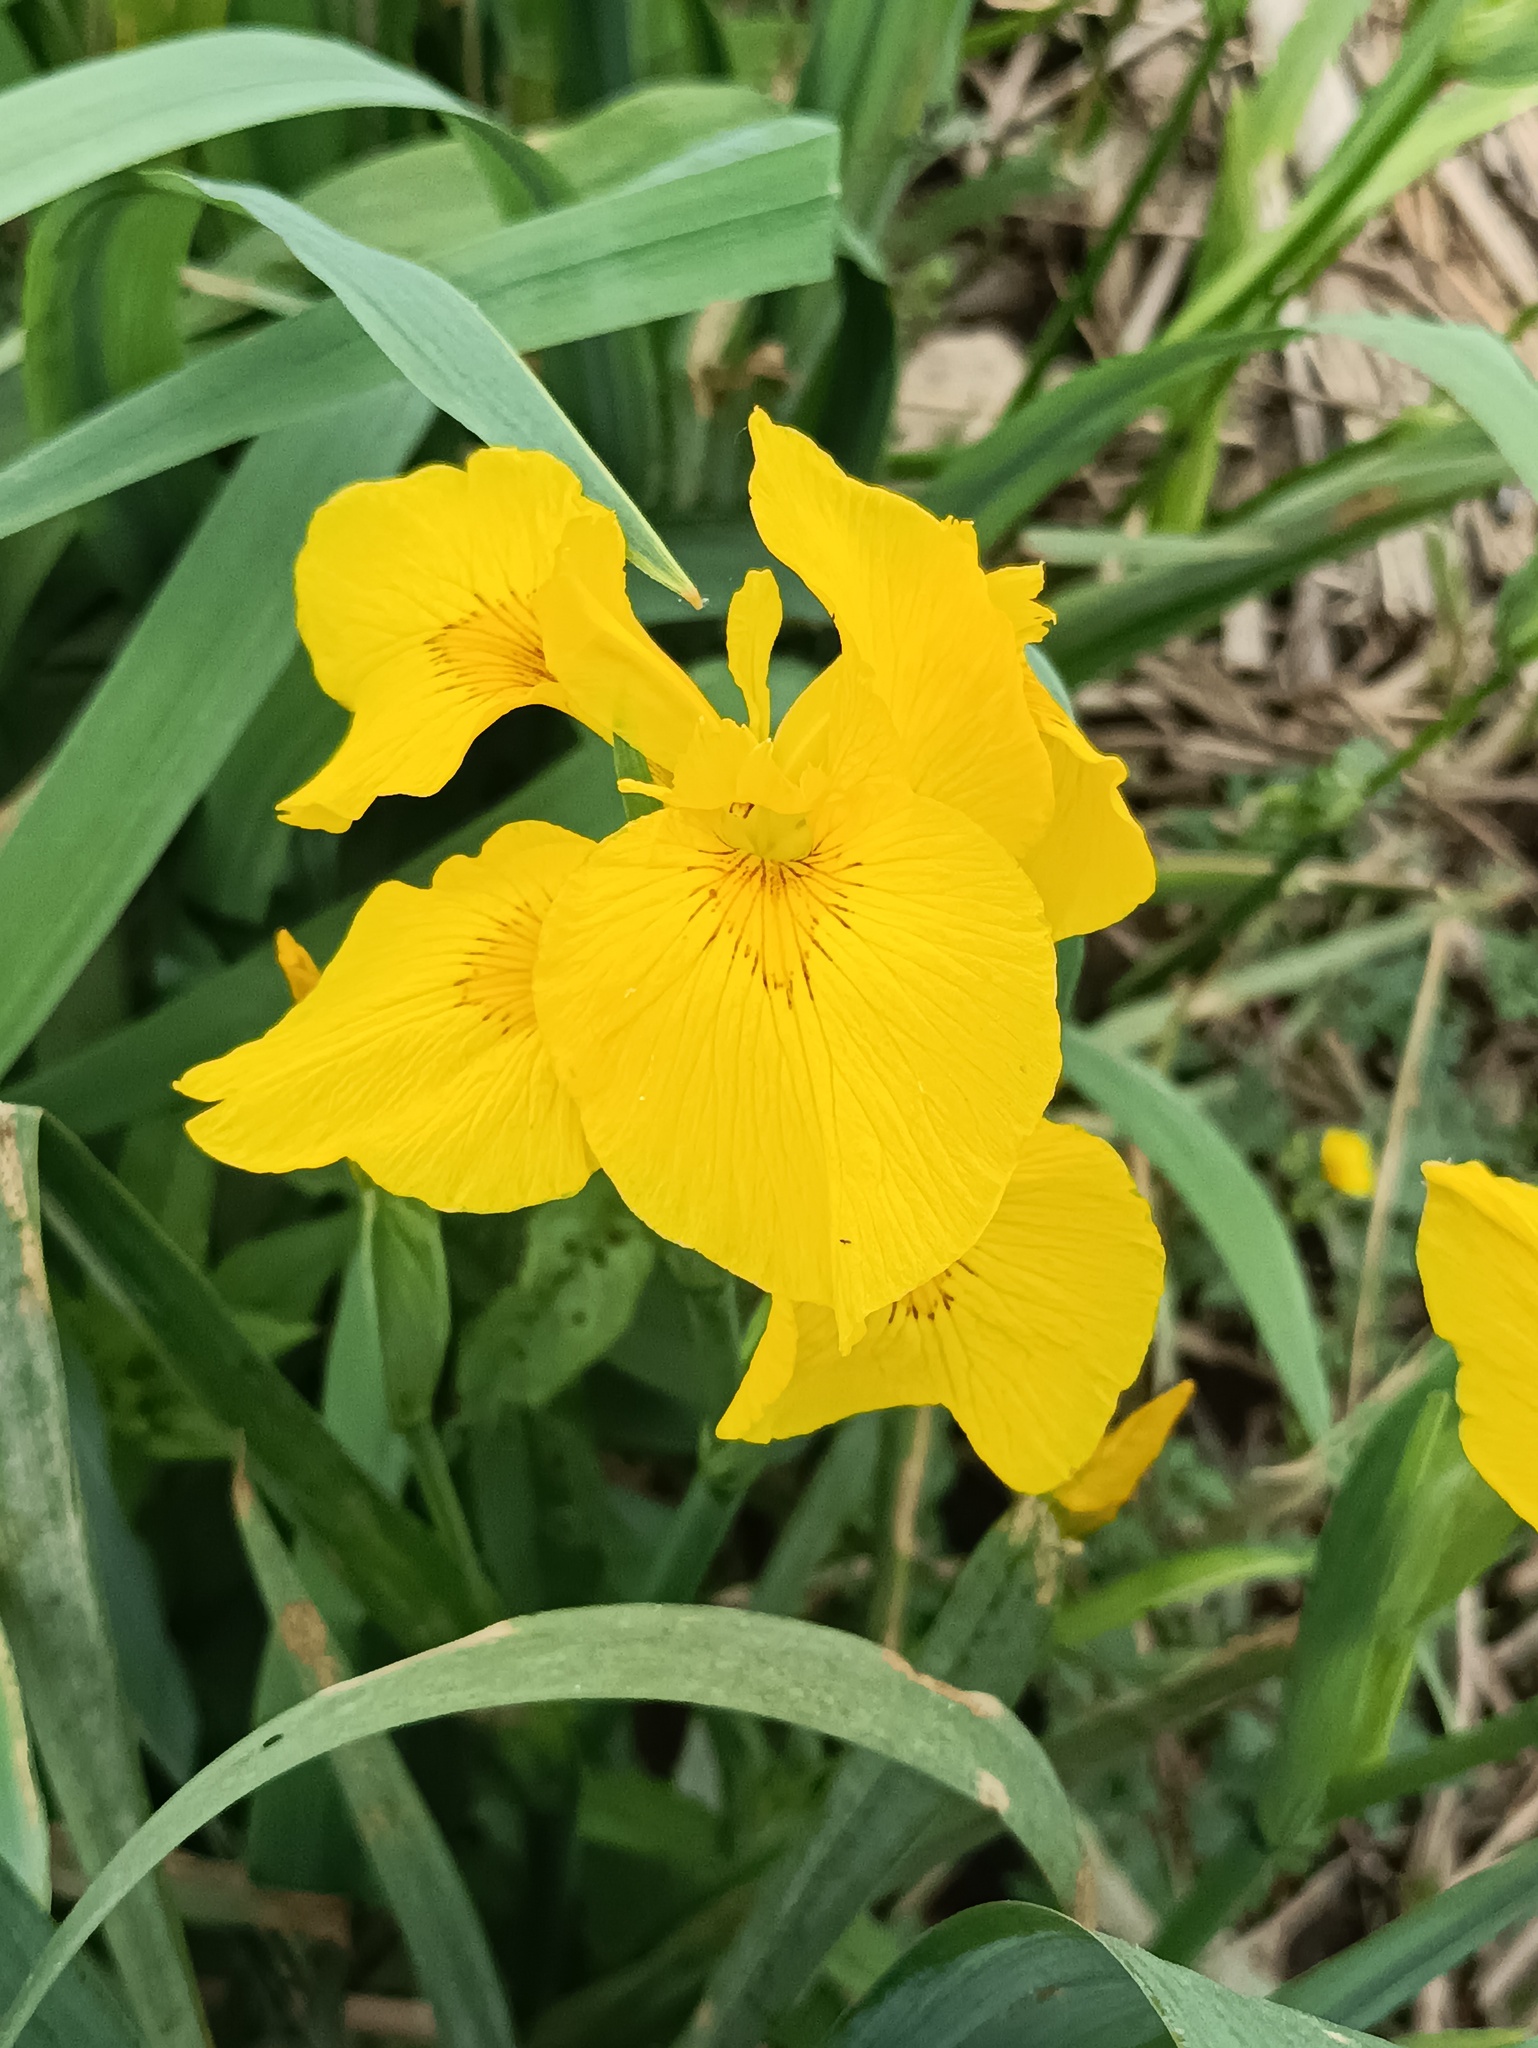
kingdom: Plantae
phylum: Tracheophyta
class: Liliopsida
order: Asparagales
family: Iridaceae
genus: Iris
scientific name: Iris pseudacorus
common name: Yellow flag
